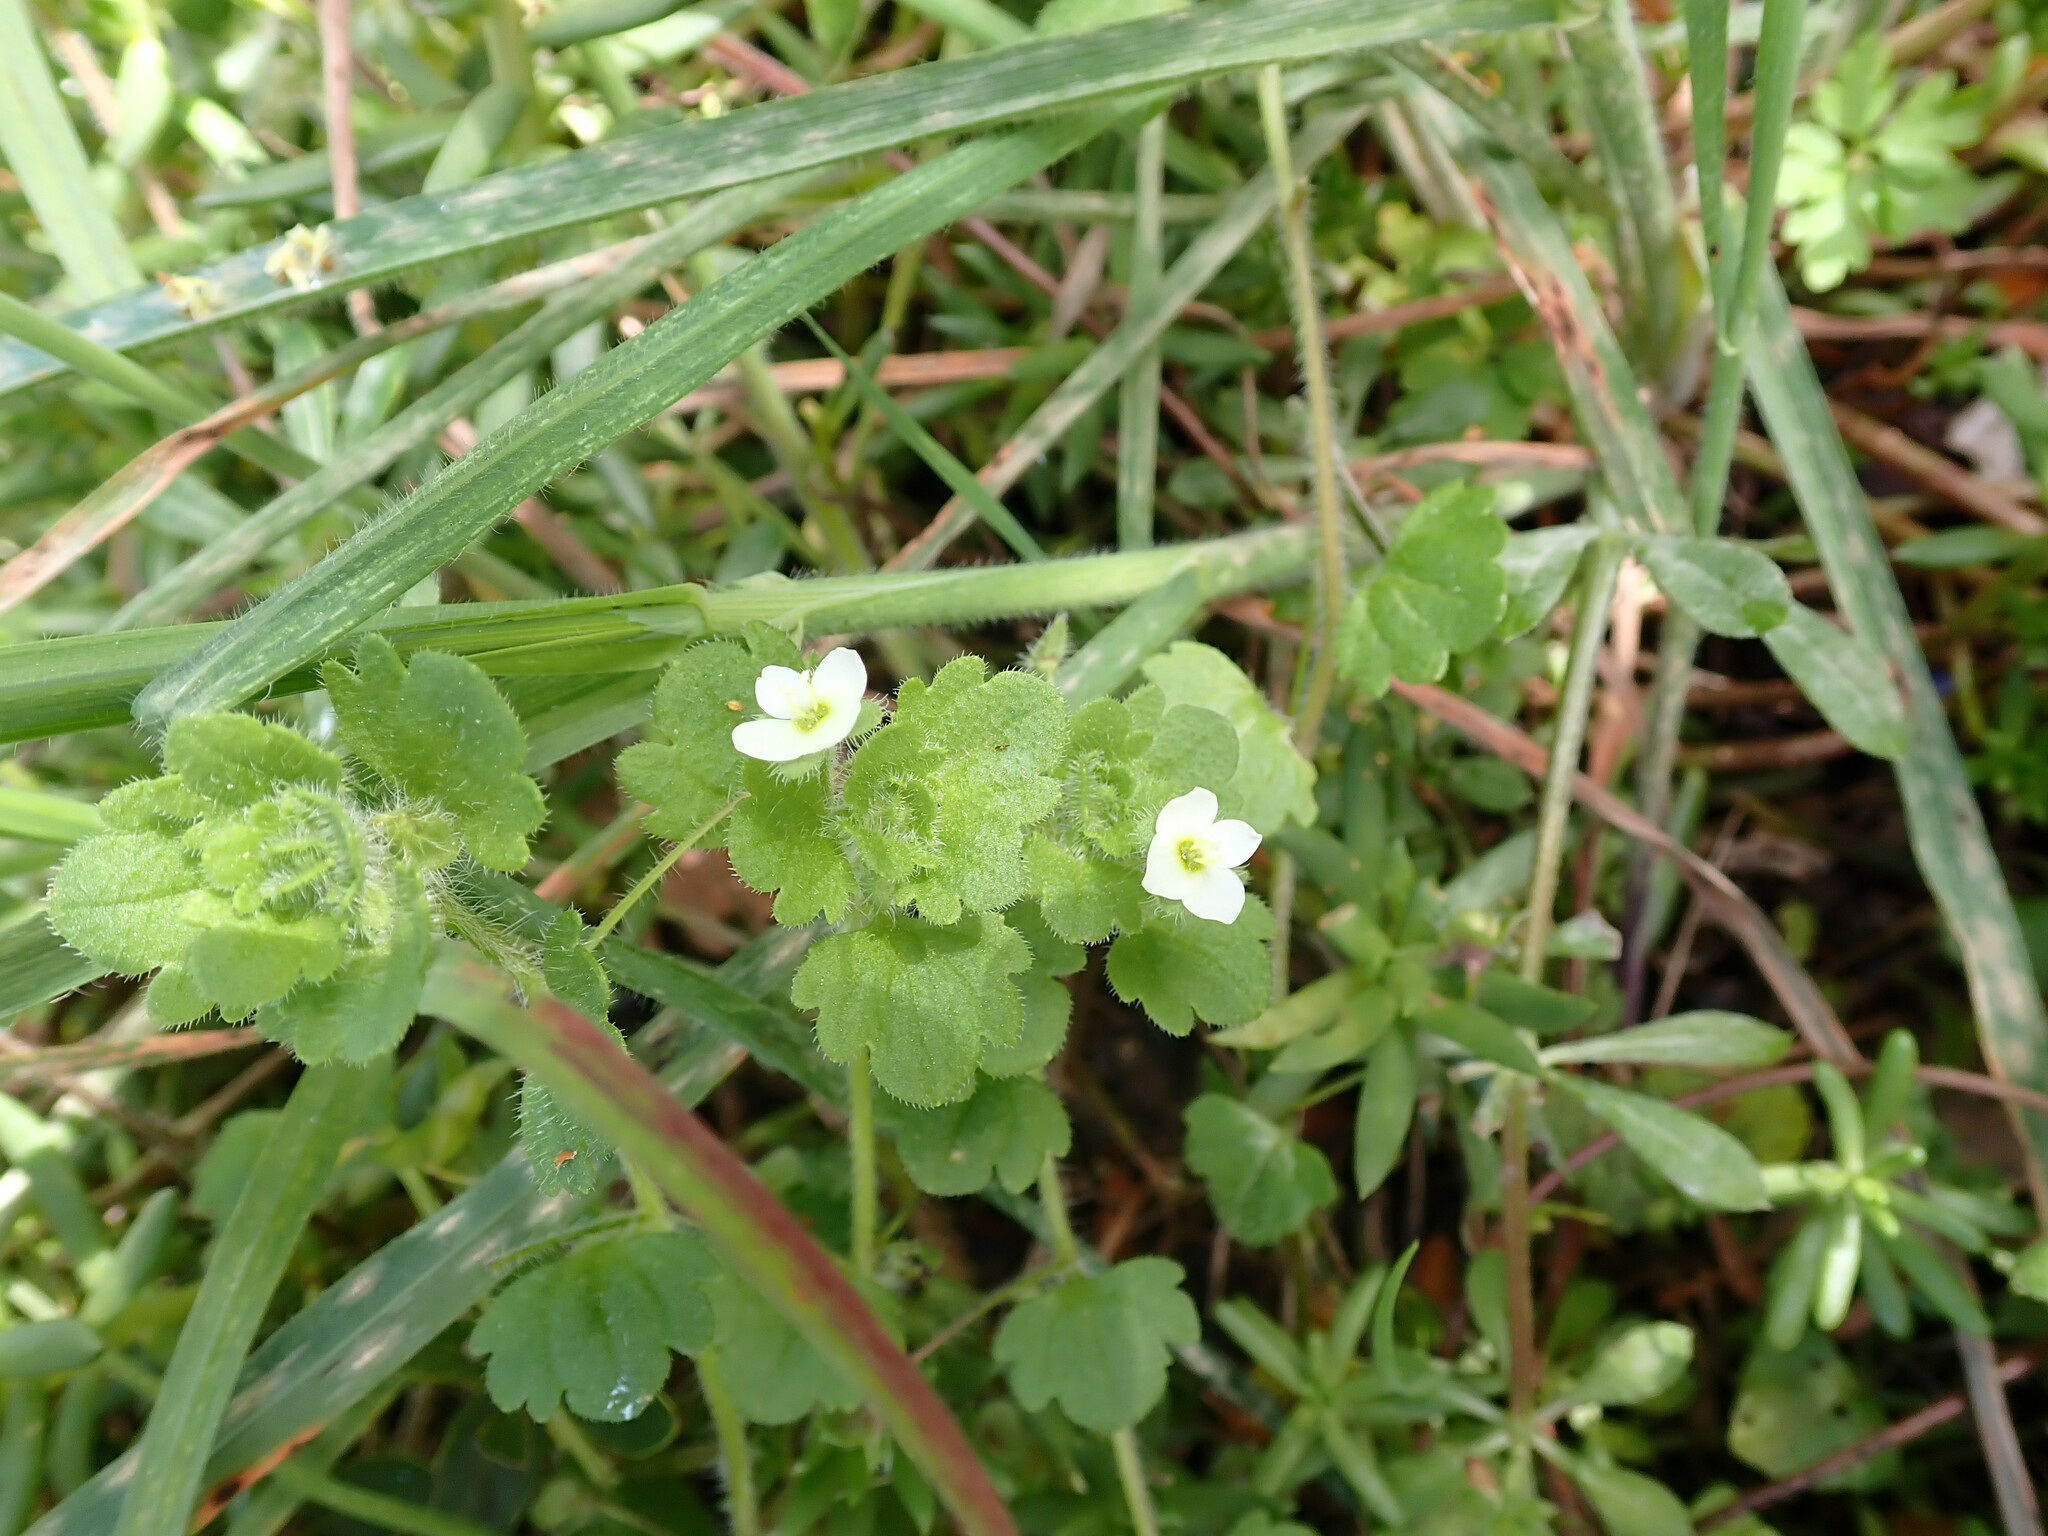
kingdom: Plantae
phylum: Tracheophyta
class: Magnoliopsida
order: Lamiales
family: Plantaginaceae
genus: Veronica
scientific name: Veronica cymbalaria
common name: Pale speedwell
